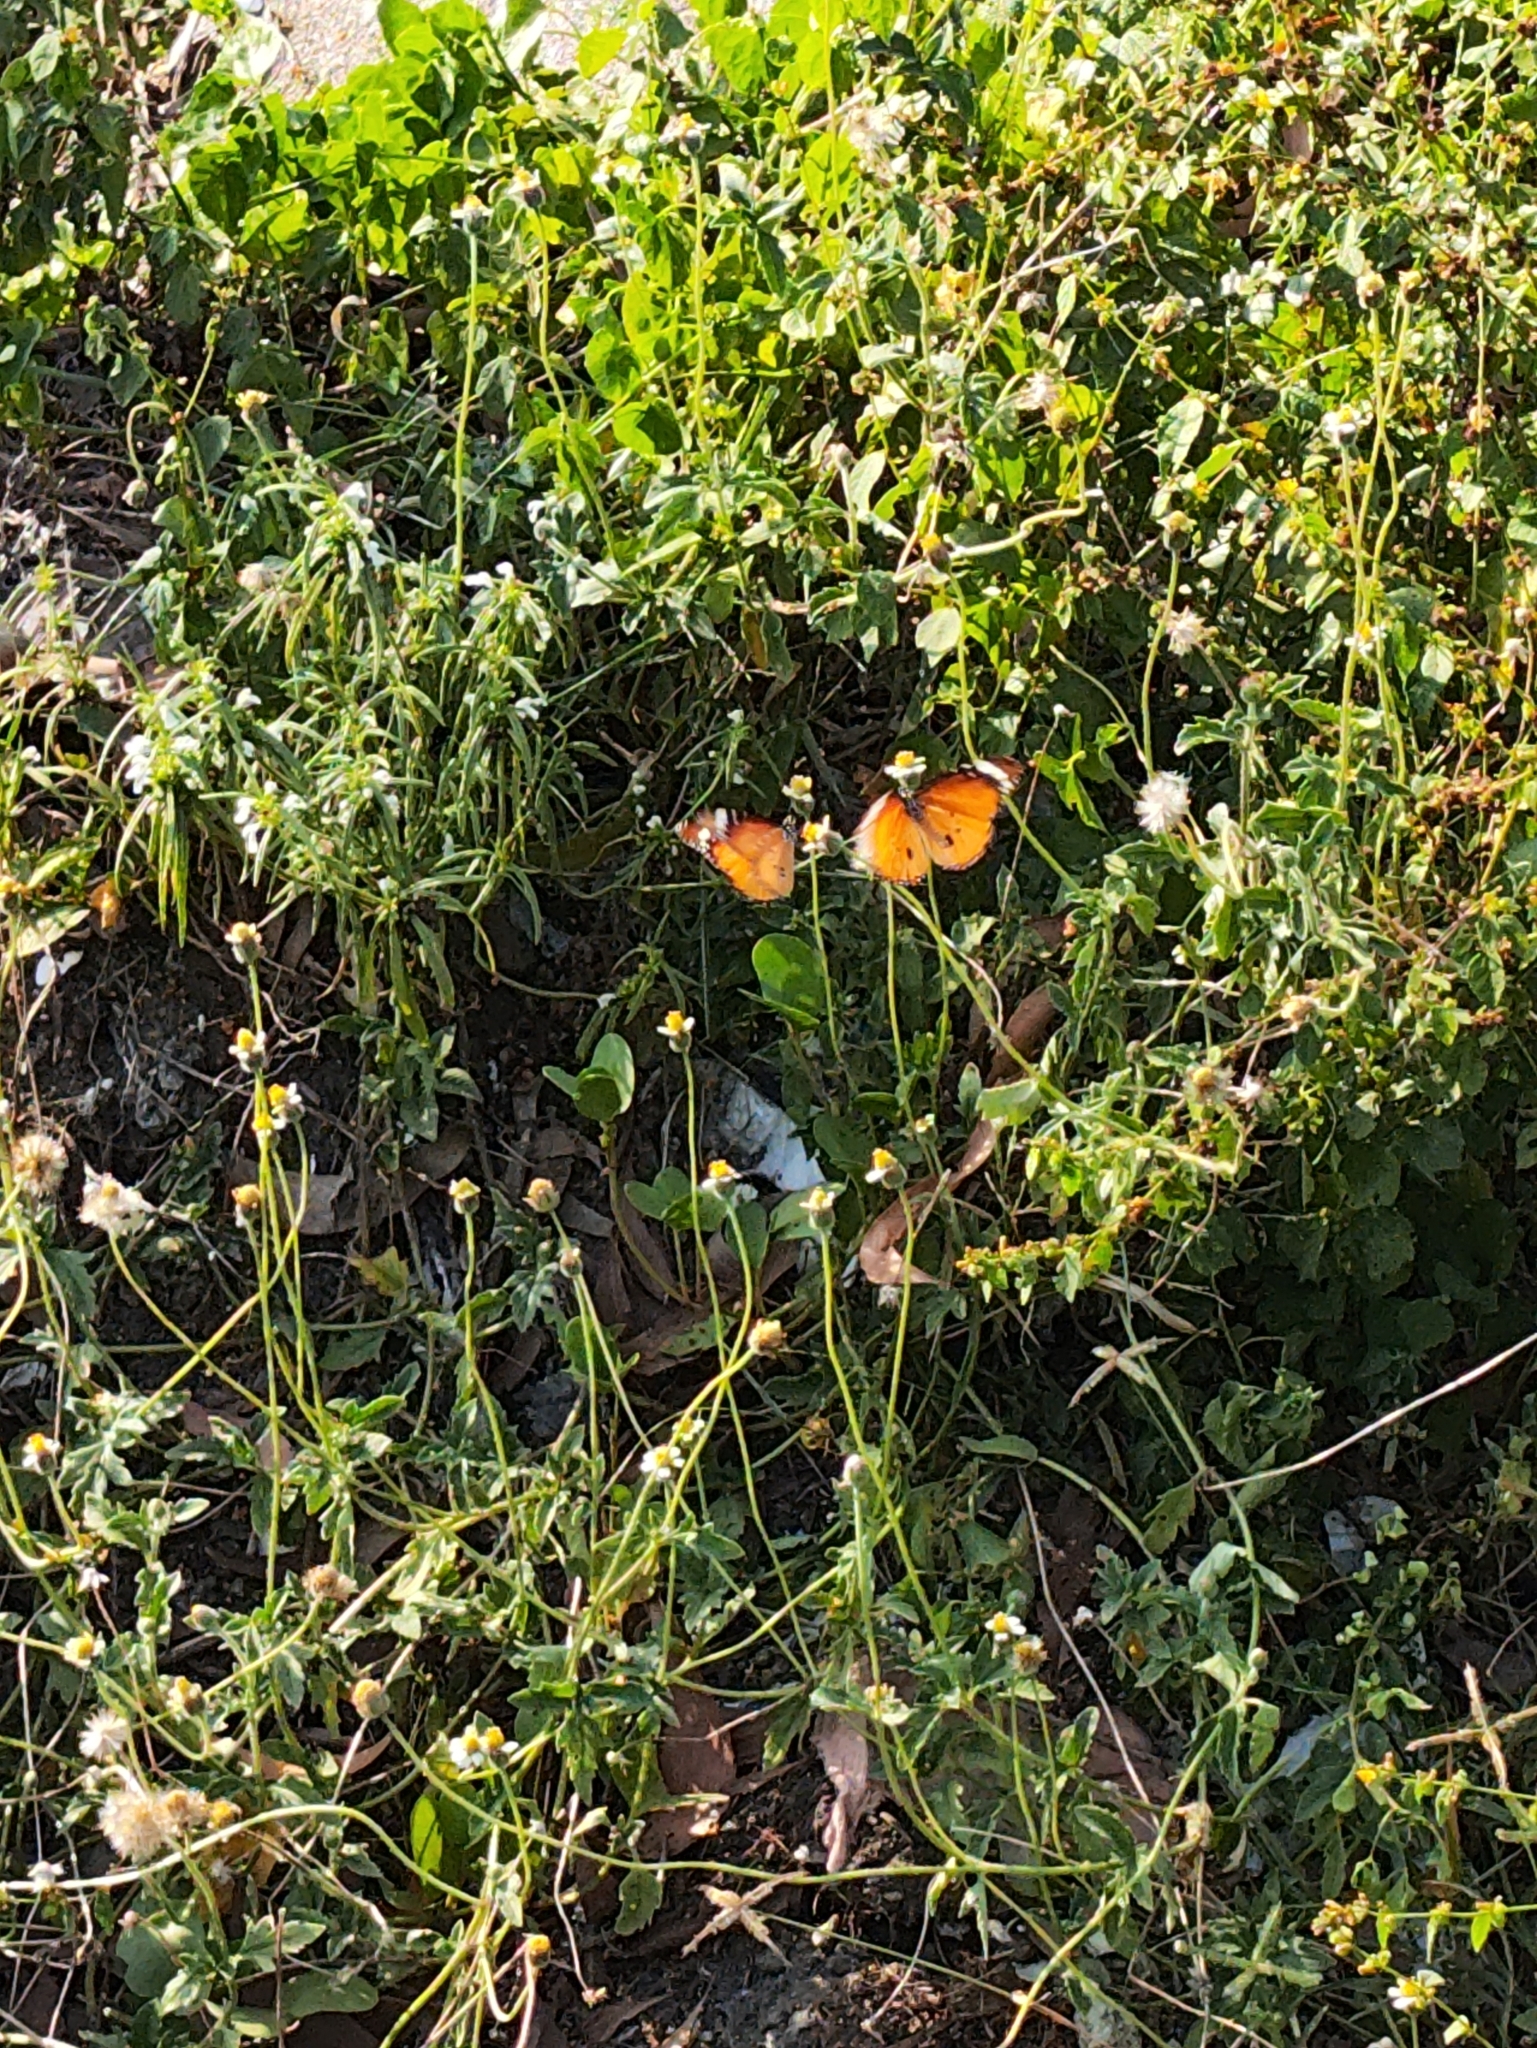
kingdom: Animalia
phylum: Arthropoda
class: Insecta
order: Lepidoptera
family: Nymphalidae
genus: Danaus
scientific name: Danaus chrysippus
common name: Plain tiger
